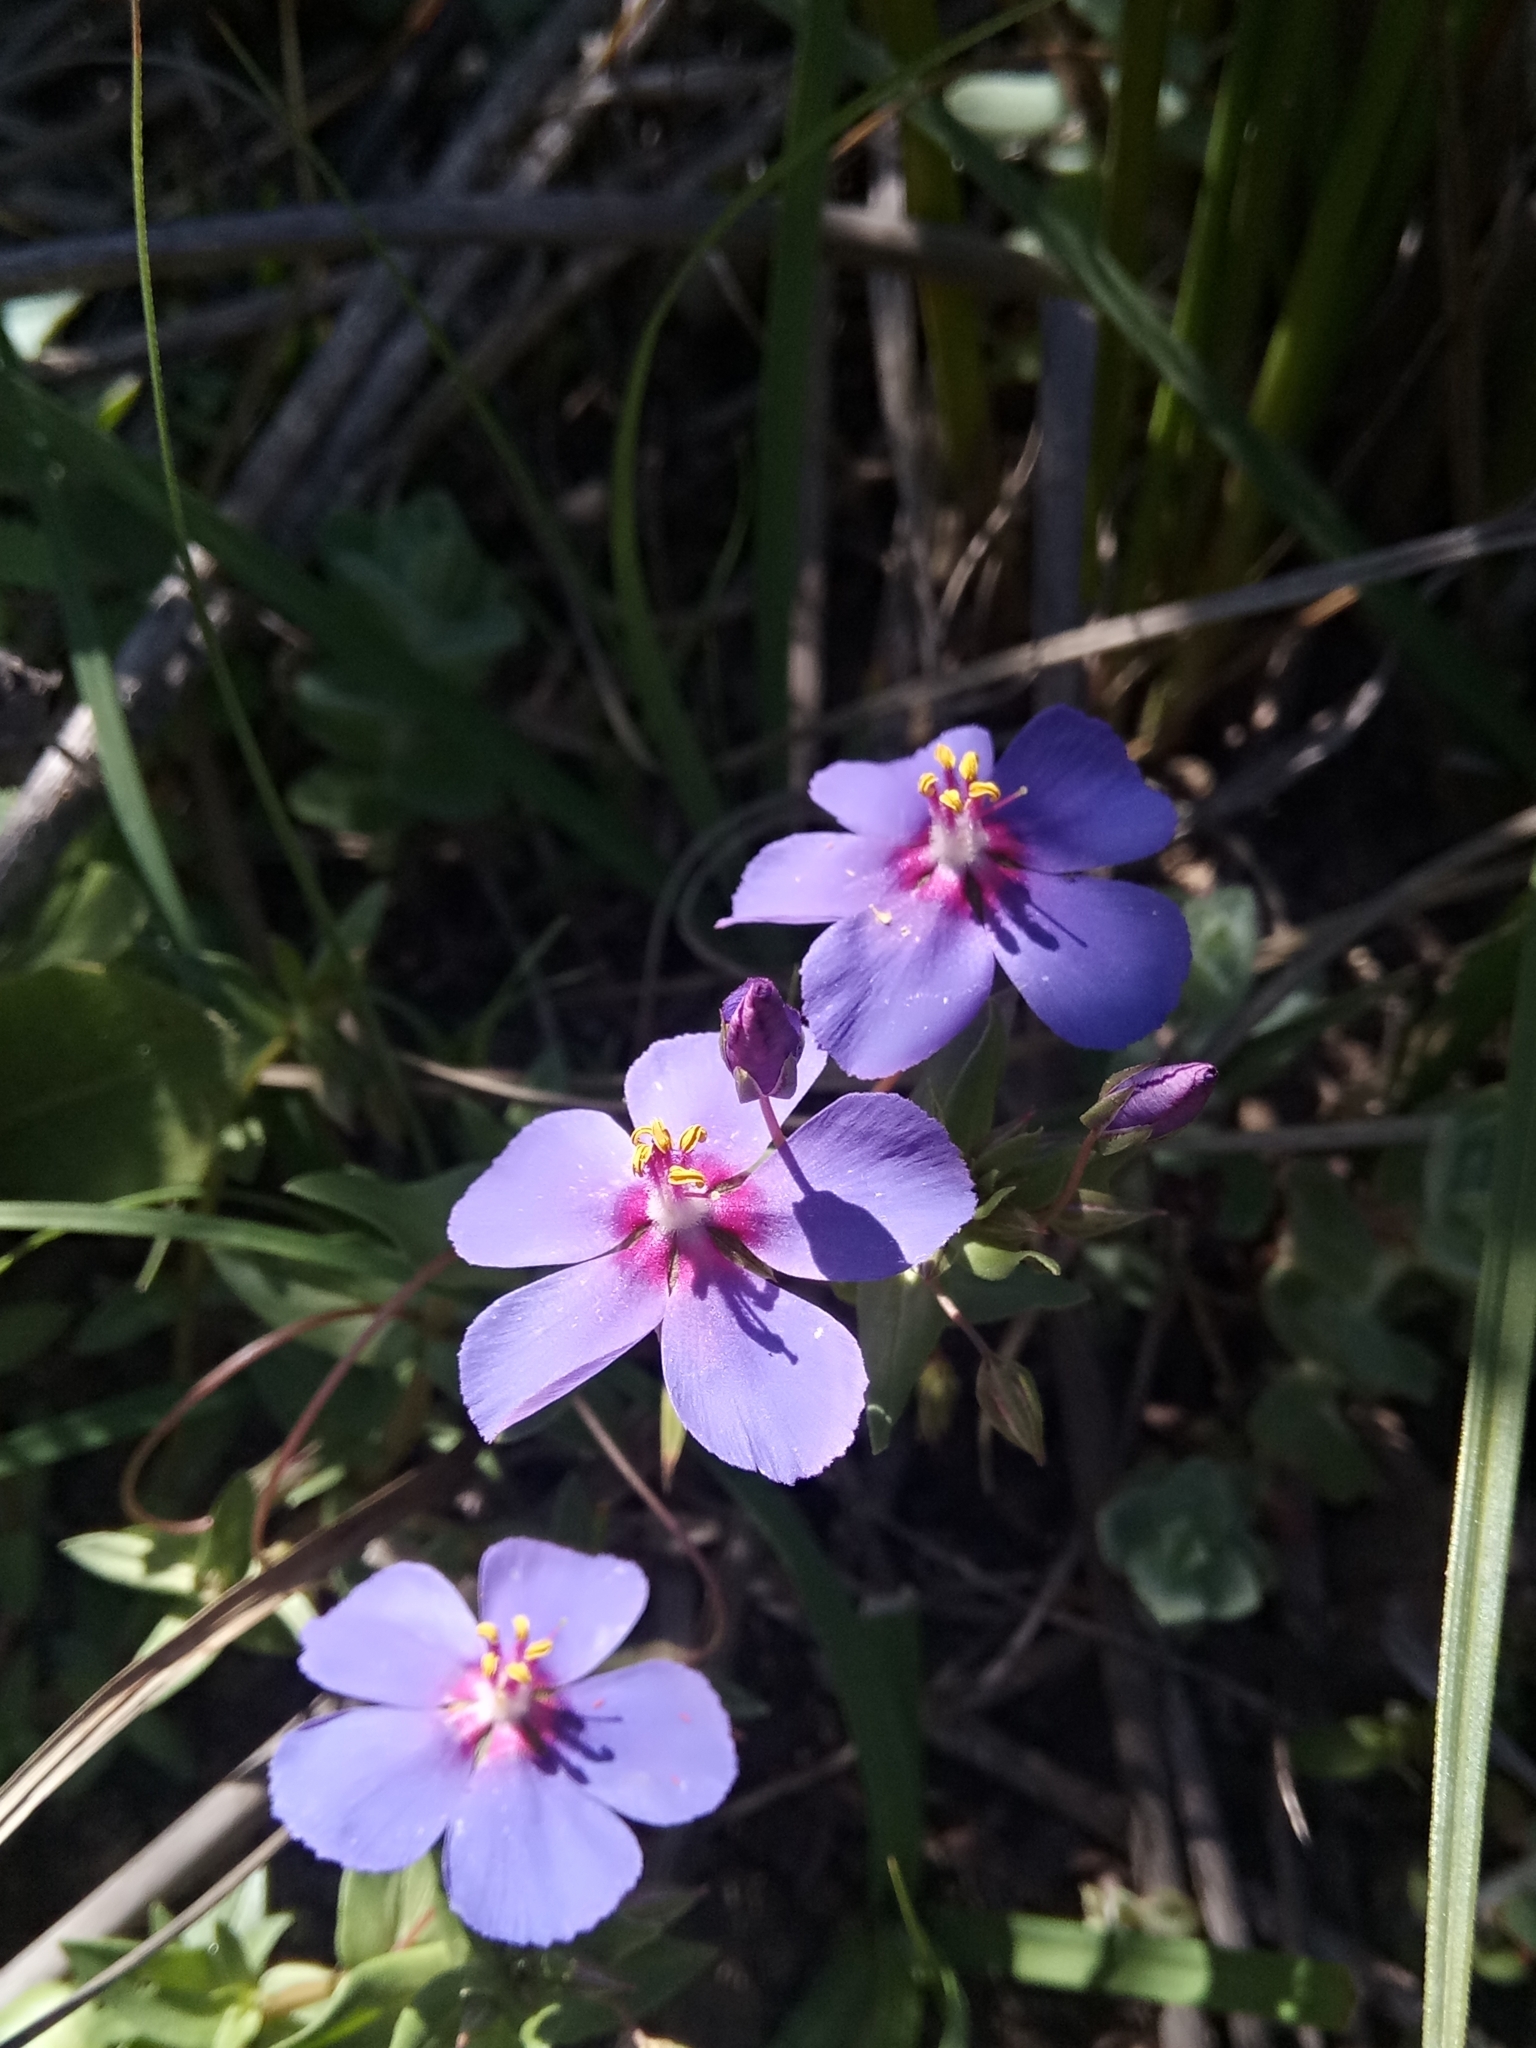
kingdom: Plantae
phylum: Tracheophyta
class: Magnoliopsida
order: Ericales
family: Primulaceae
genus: Lysimachia
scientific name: Lysimachia loeflingii
